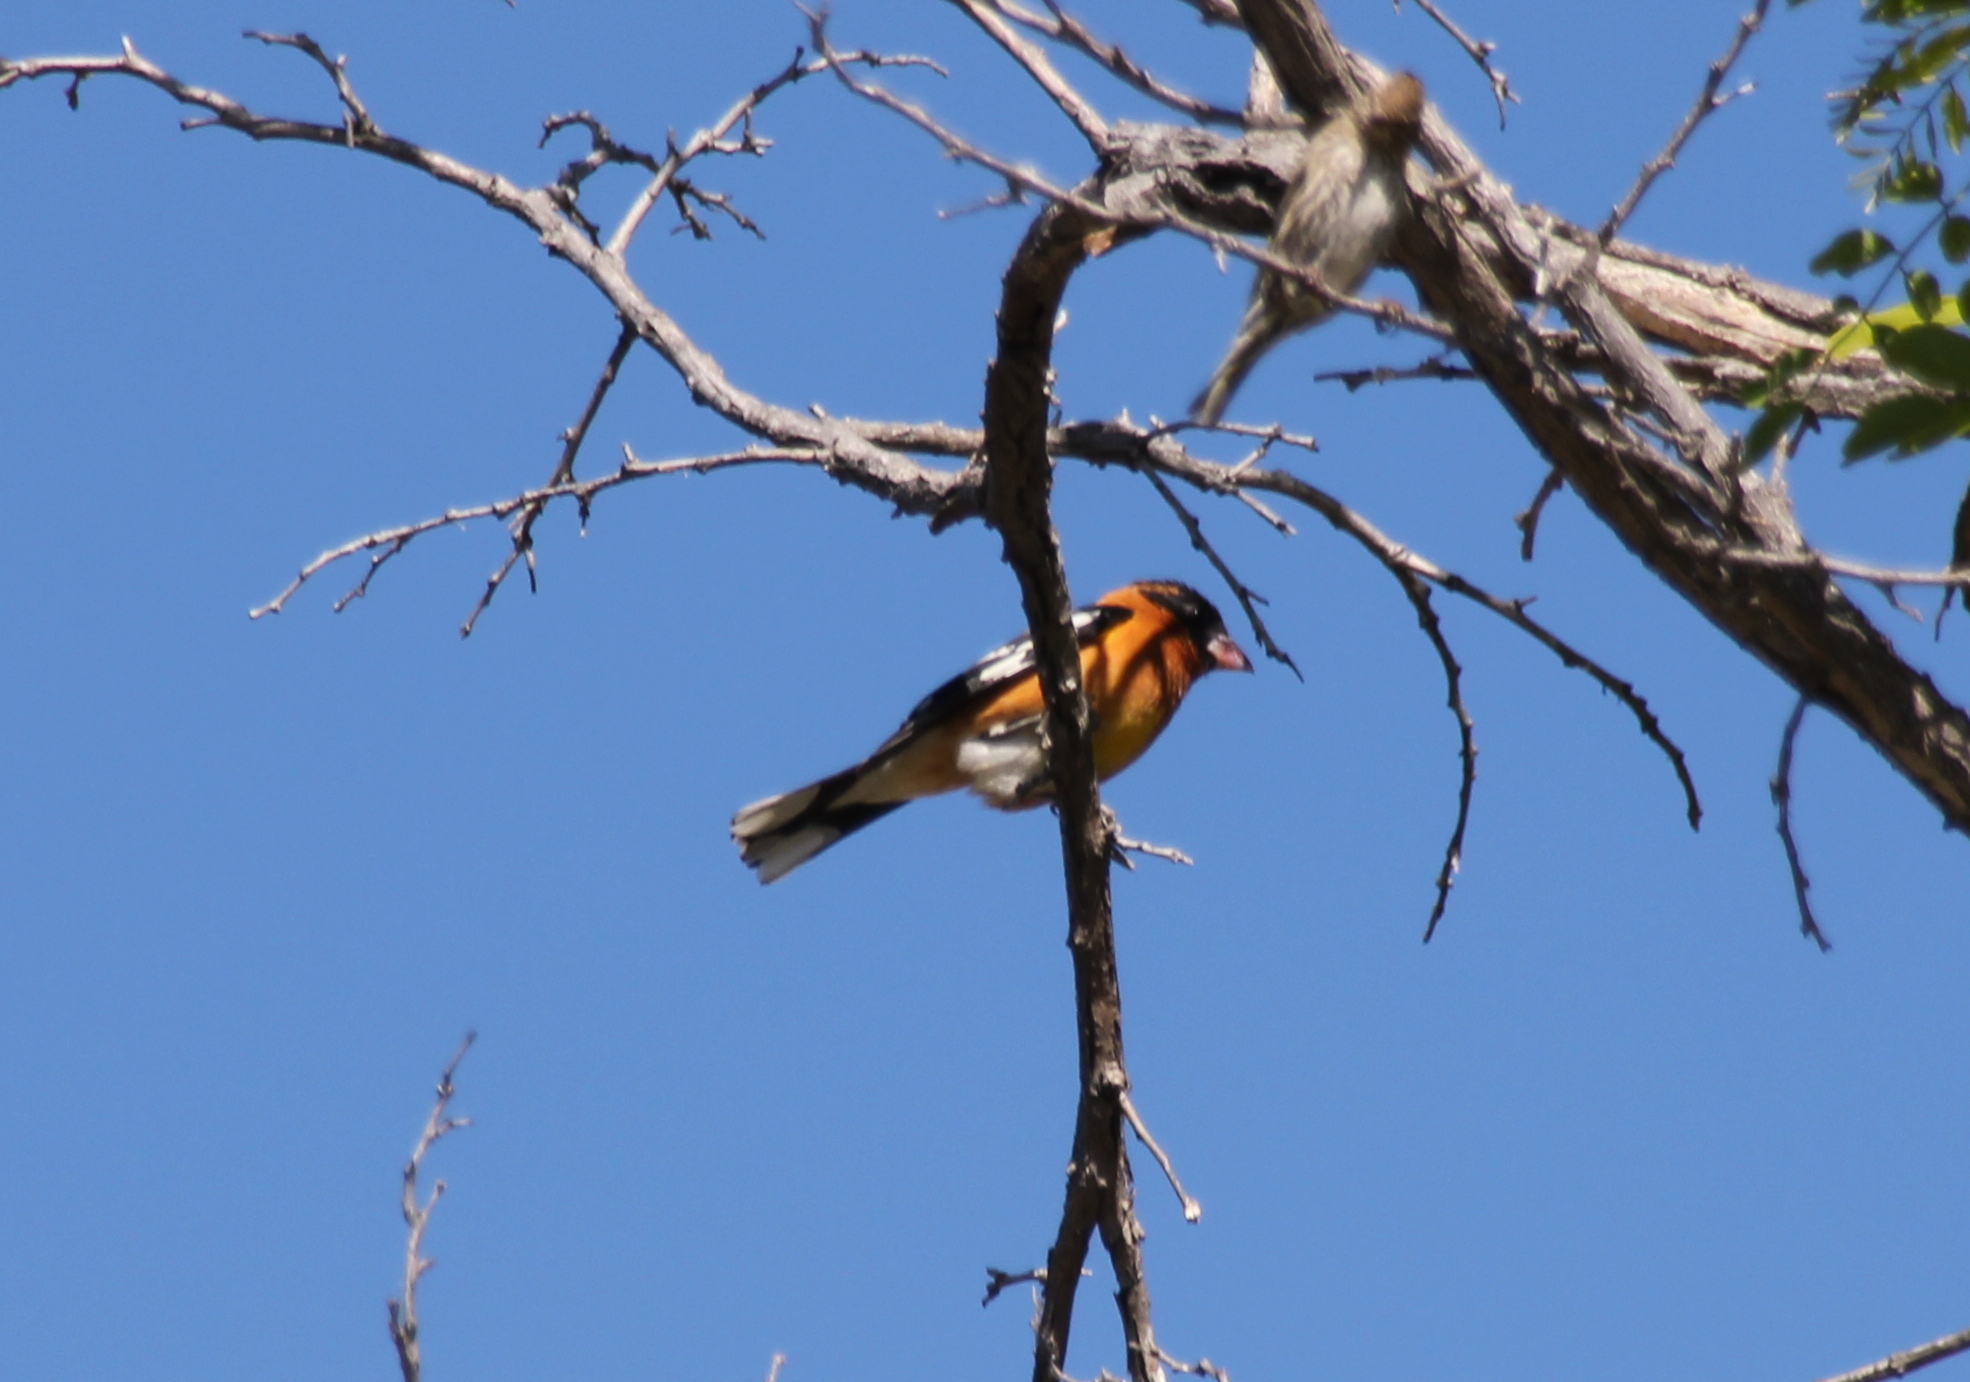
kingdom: Animalia
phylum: Chordata
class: Aves
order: Passeriformes
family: Cardinalidae
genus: Pheucticus
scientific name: Pheucticus melanocephalus
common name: Black-headed grosbeak
